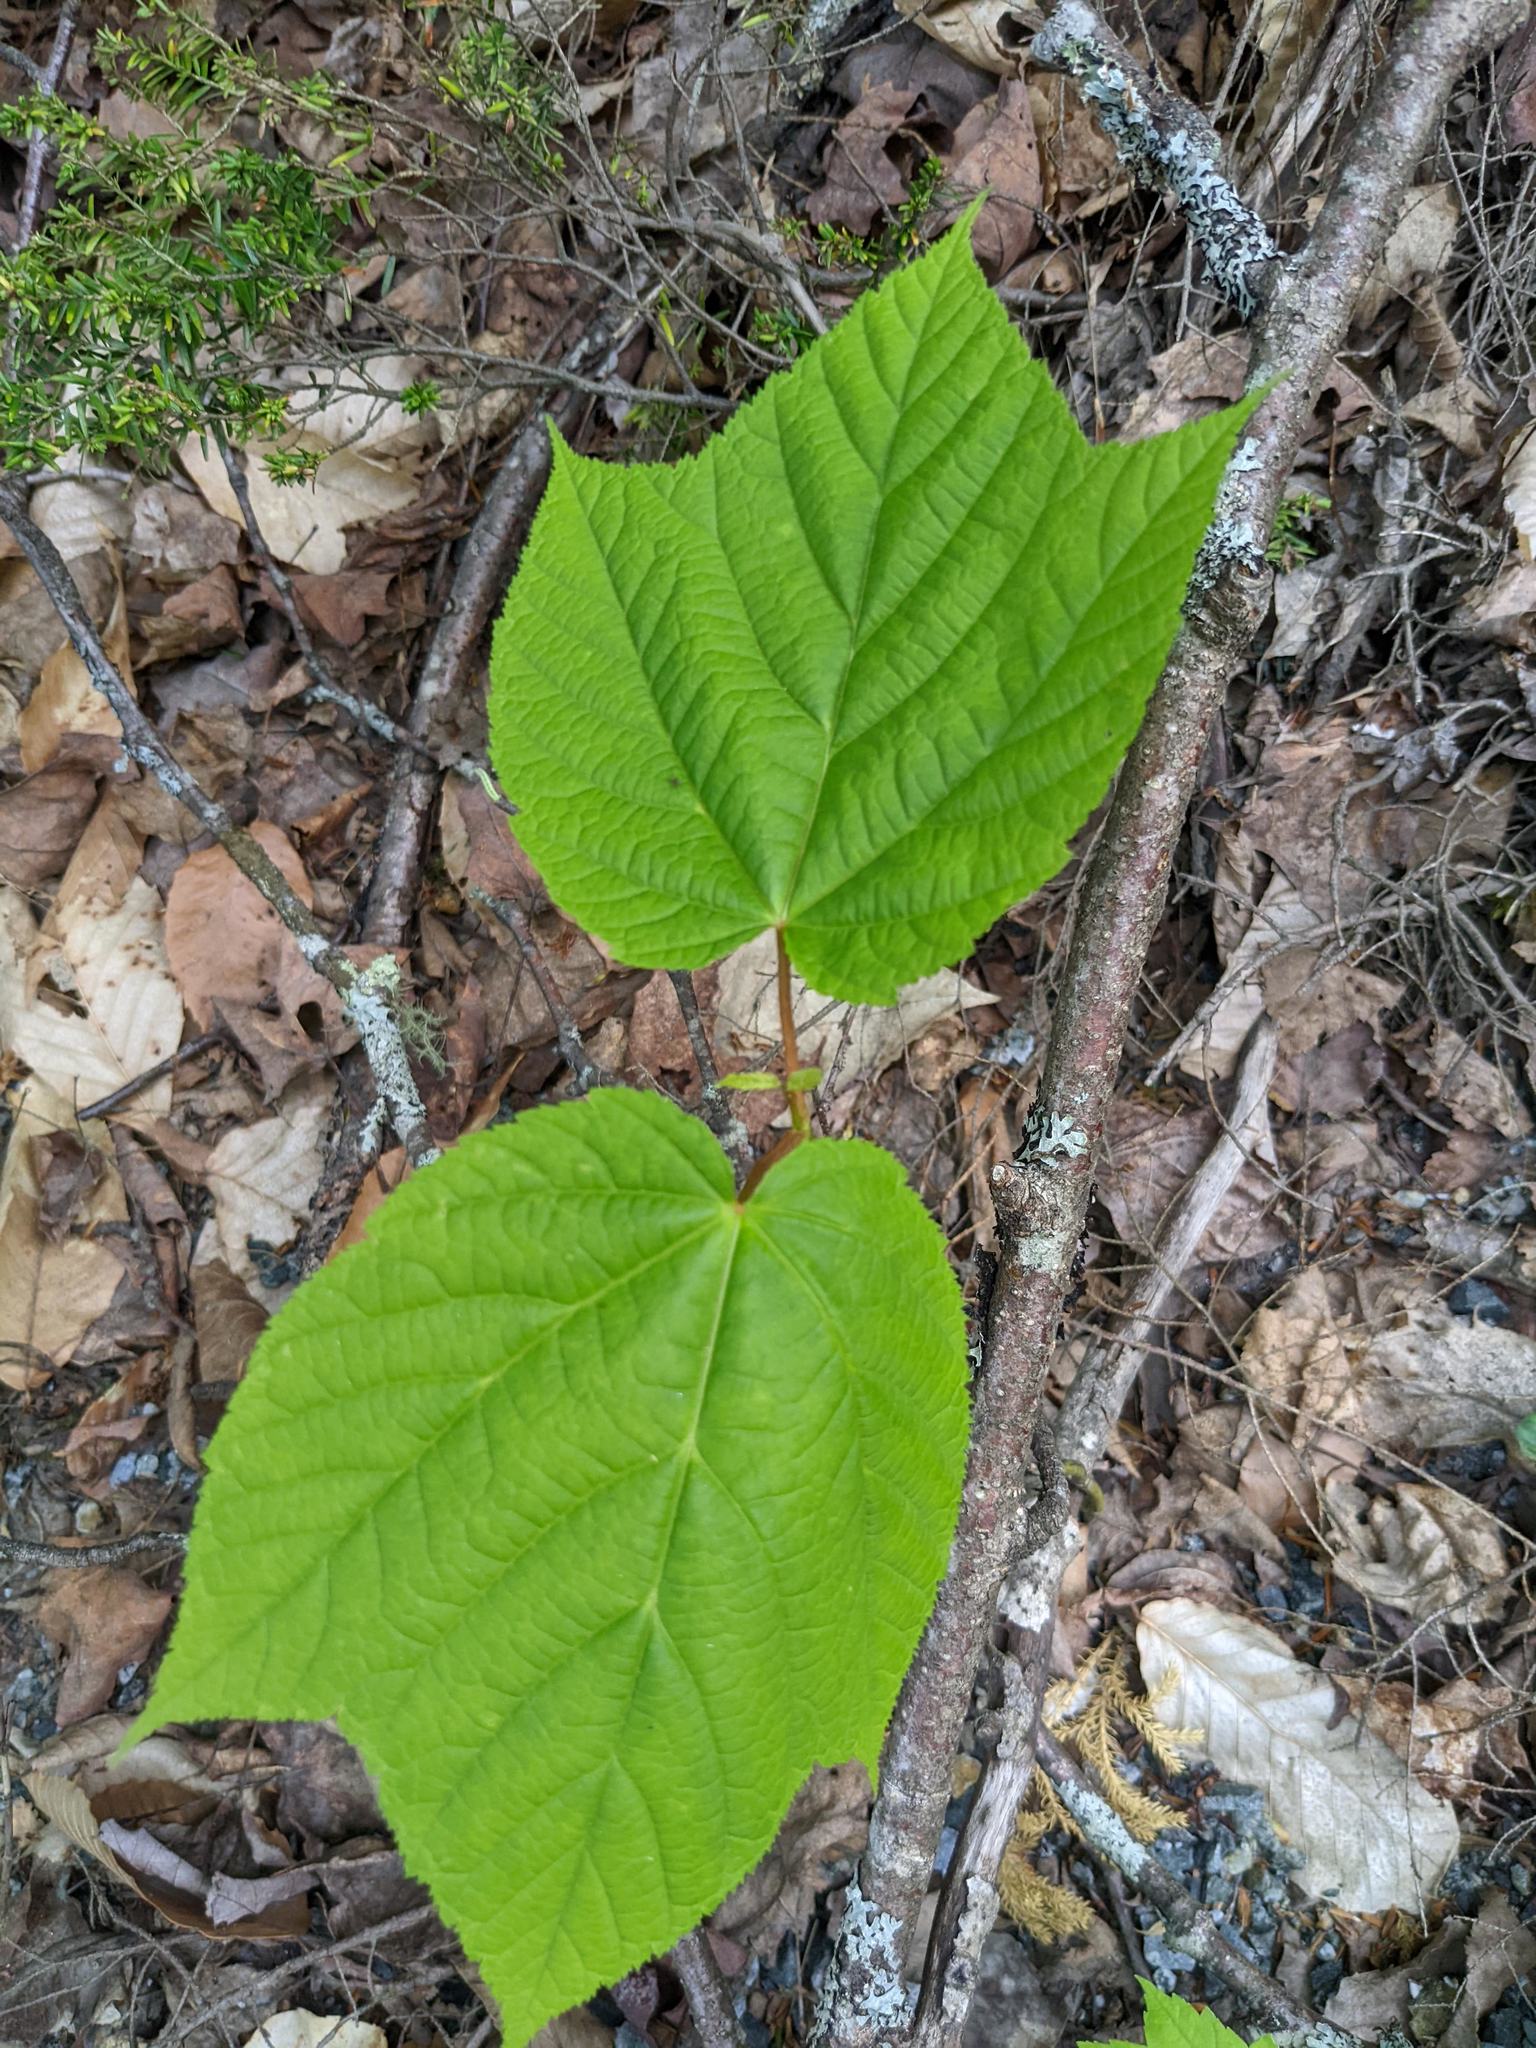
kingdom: Plantae
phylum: Tracheophyta
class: Magnoliopsida
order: Sapindales
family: Sapindaceae
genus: Acer
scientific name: Acer pensylvanicum
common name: Moosewood
